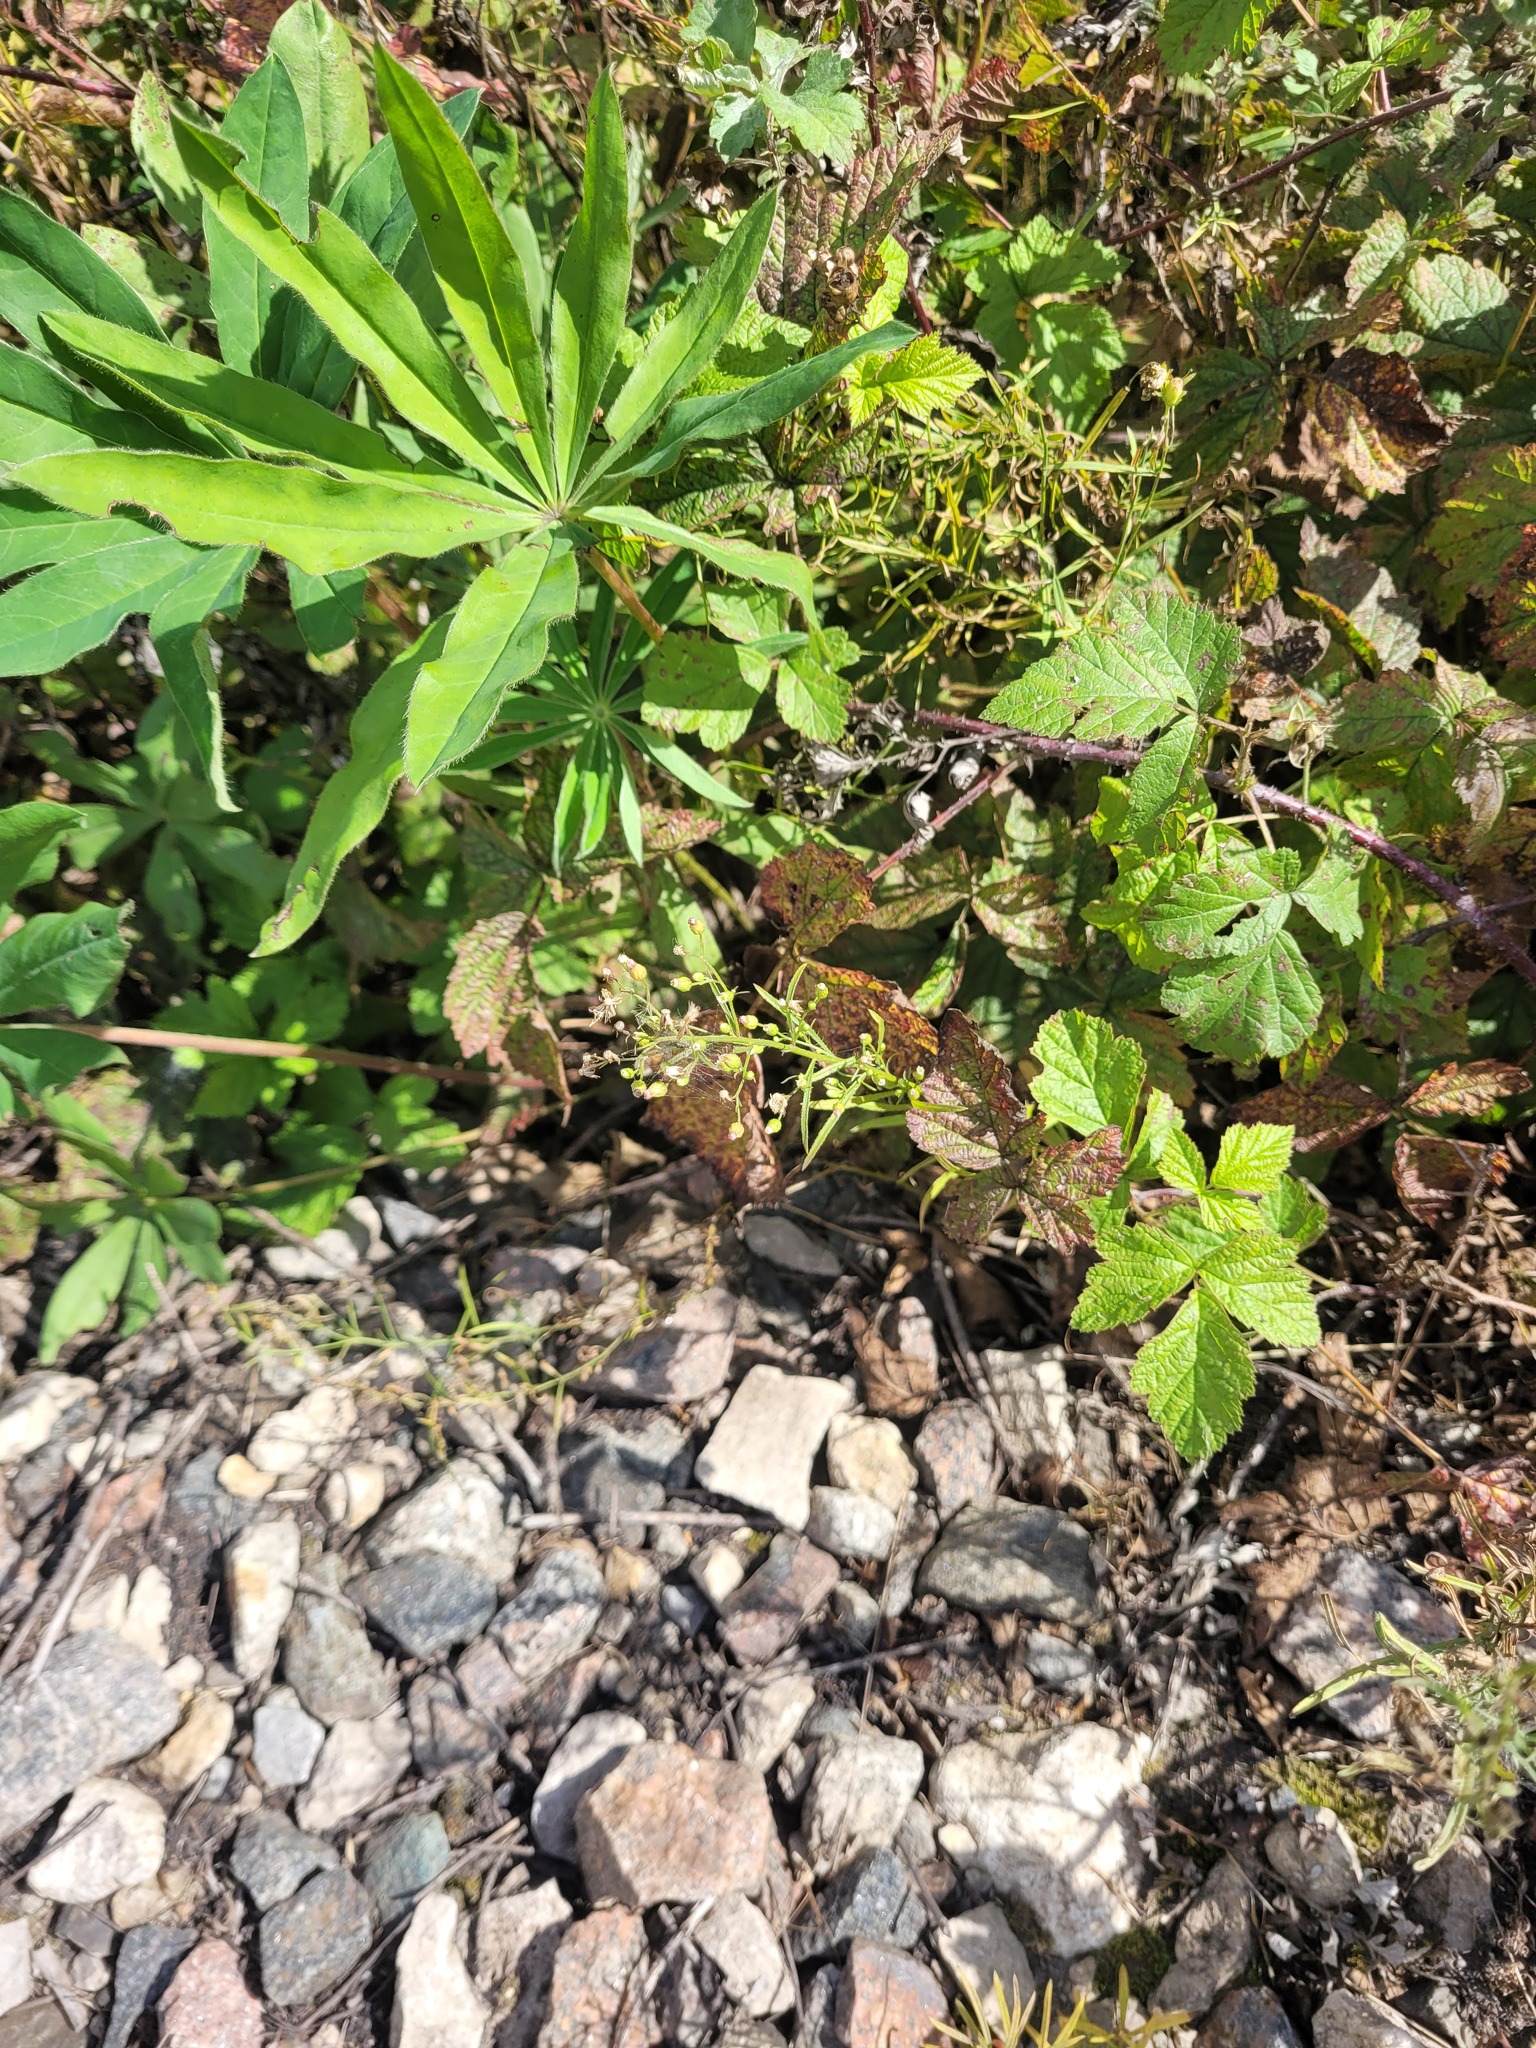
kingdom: Plantae
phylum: Tracheophyta
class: Magnoliopsida
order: Asterales
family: Asteraceae
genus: Erigeron
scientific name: Erigeron canadensis
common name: Canadian fleabane
